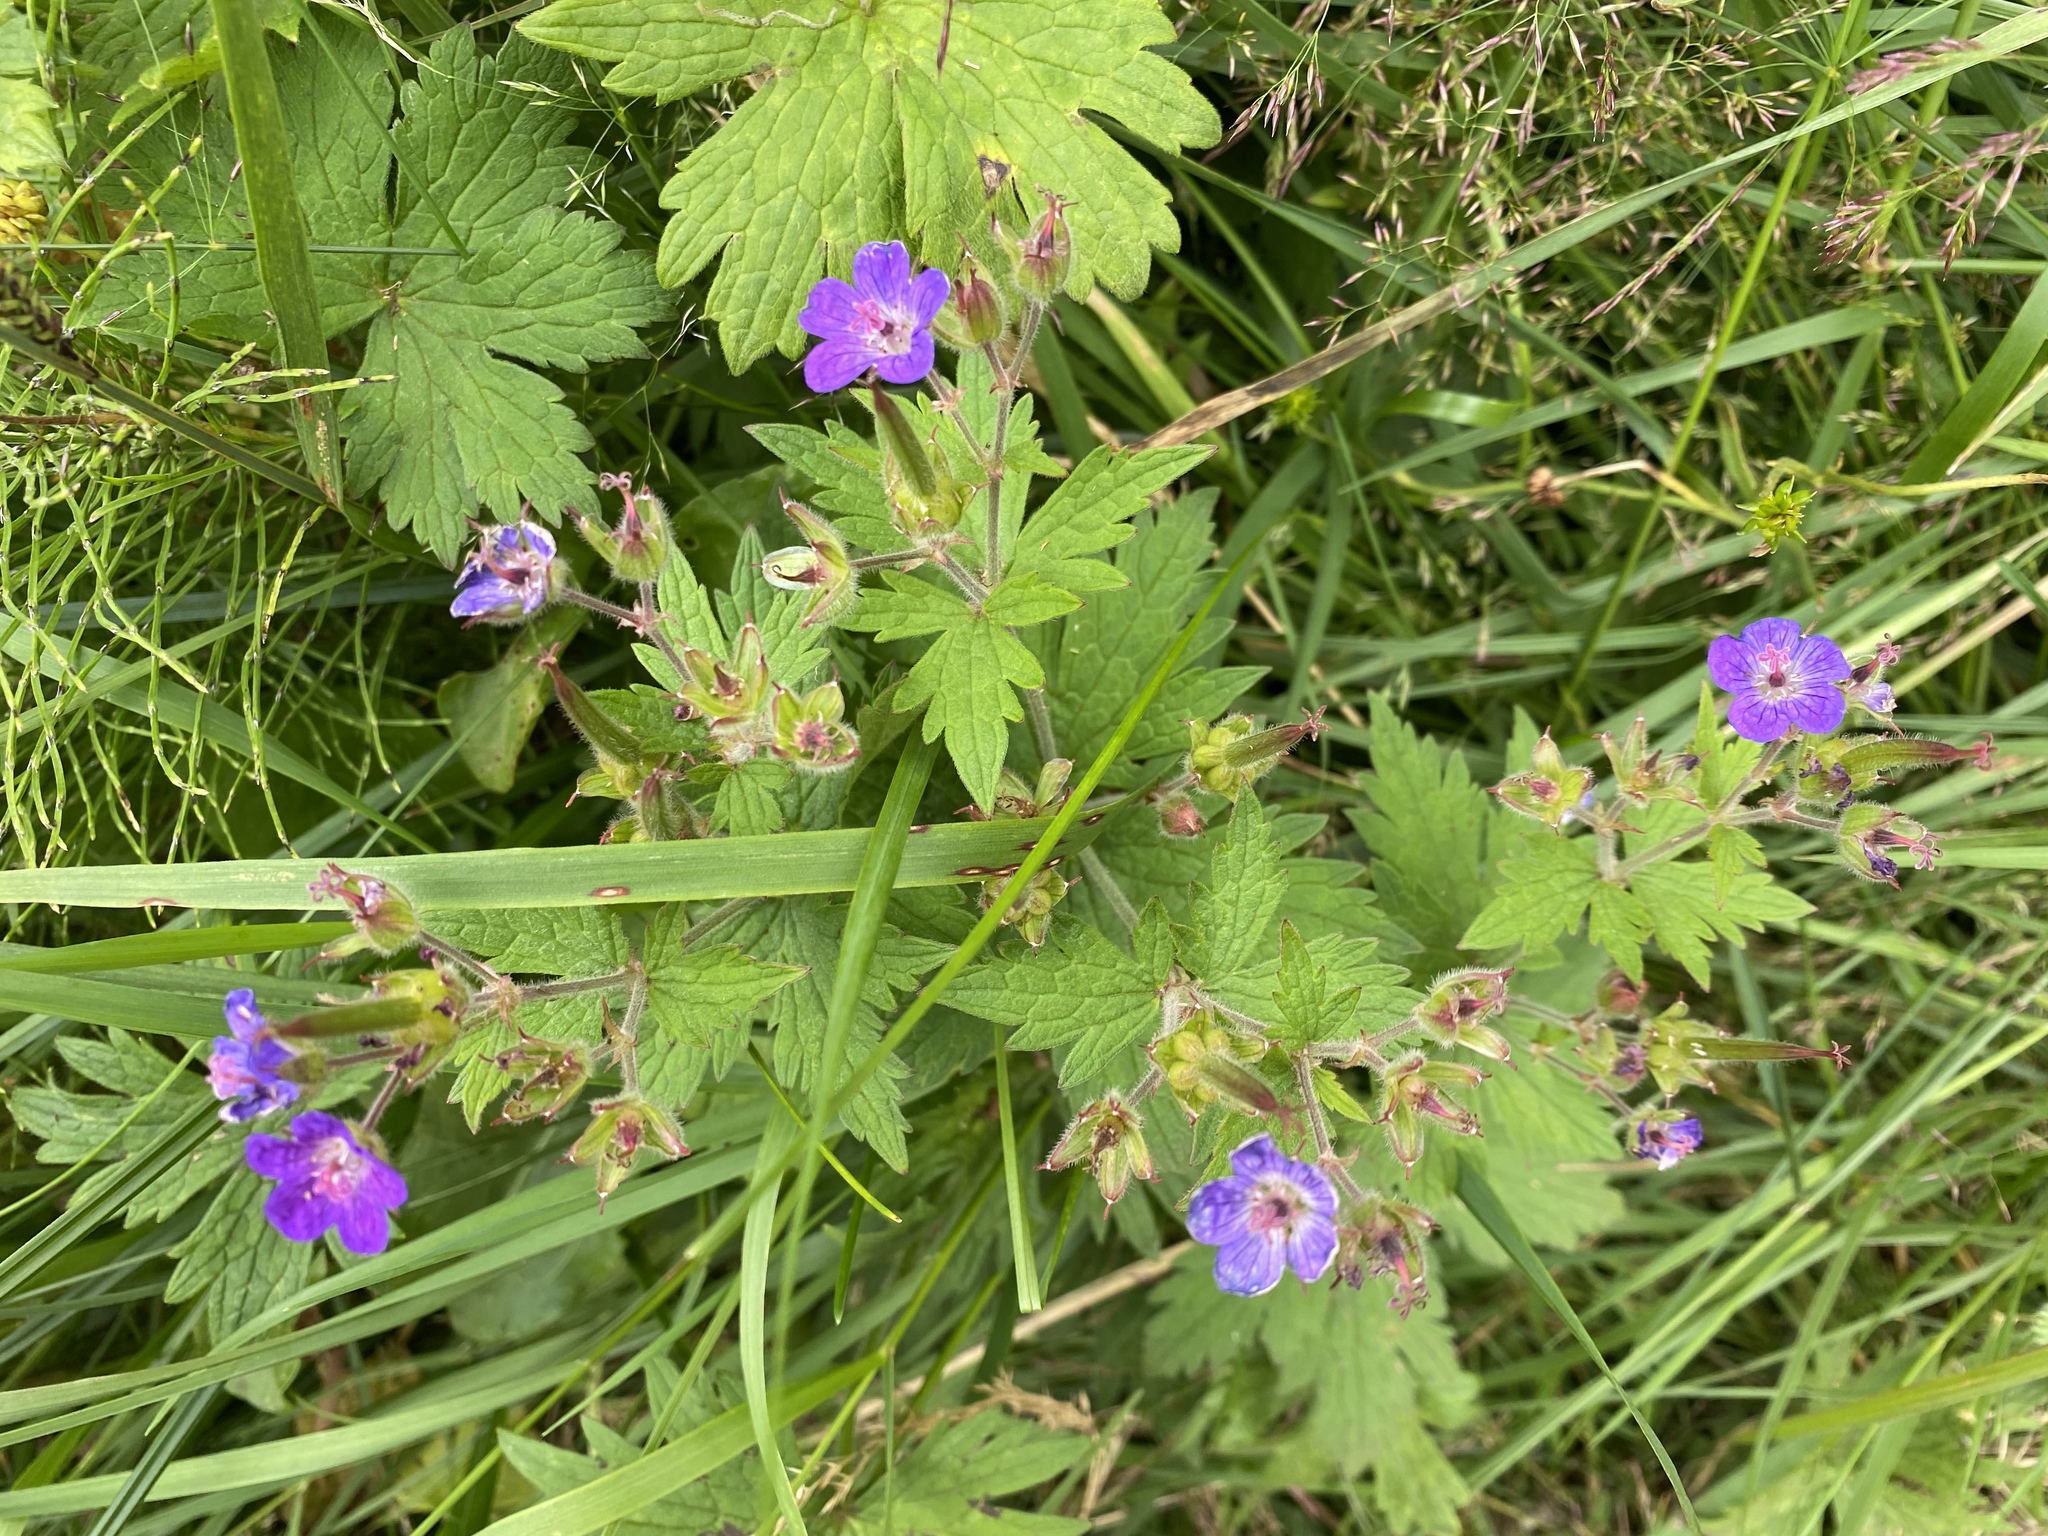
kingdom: Plantae
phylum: Tracheophyta
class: Magnoliopsida
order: Geraniales
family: Geraniaceae
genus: Geranium
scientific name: Geranium sylvaticum
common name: Wood crane's-bill
